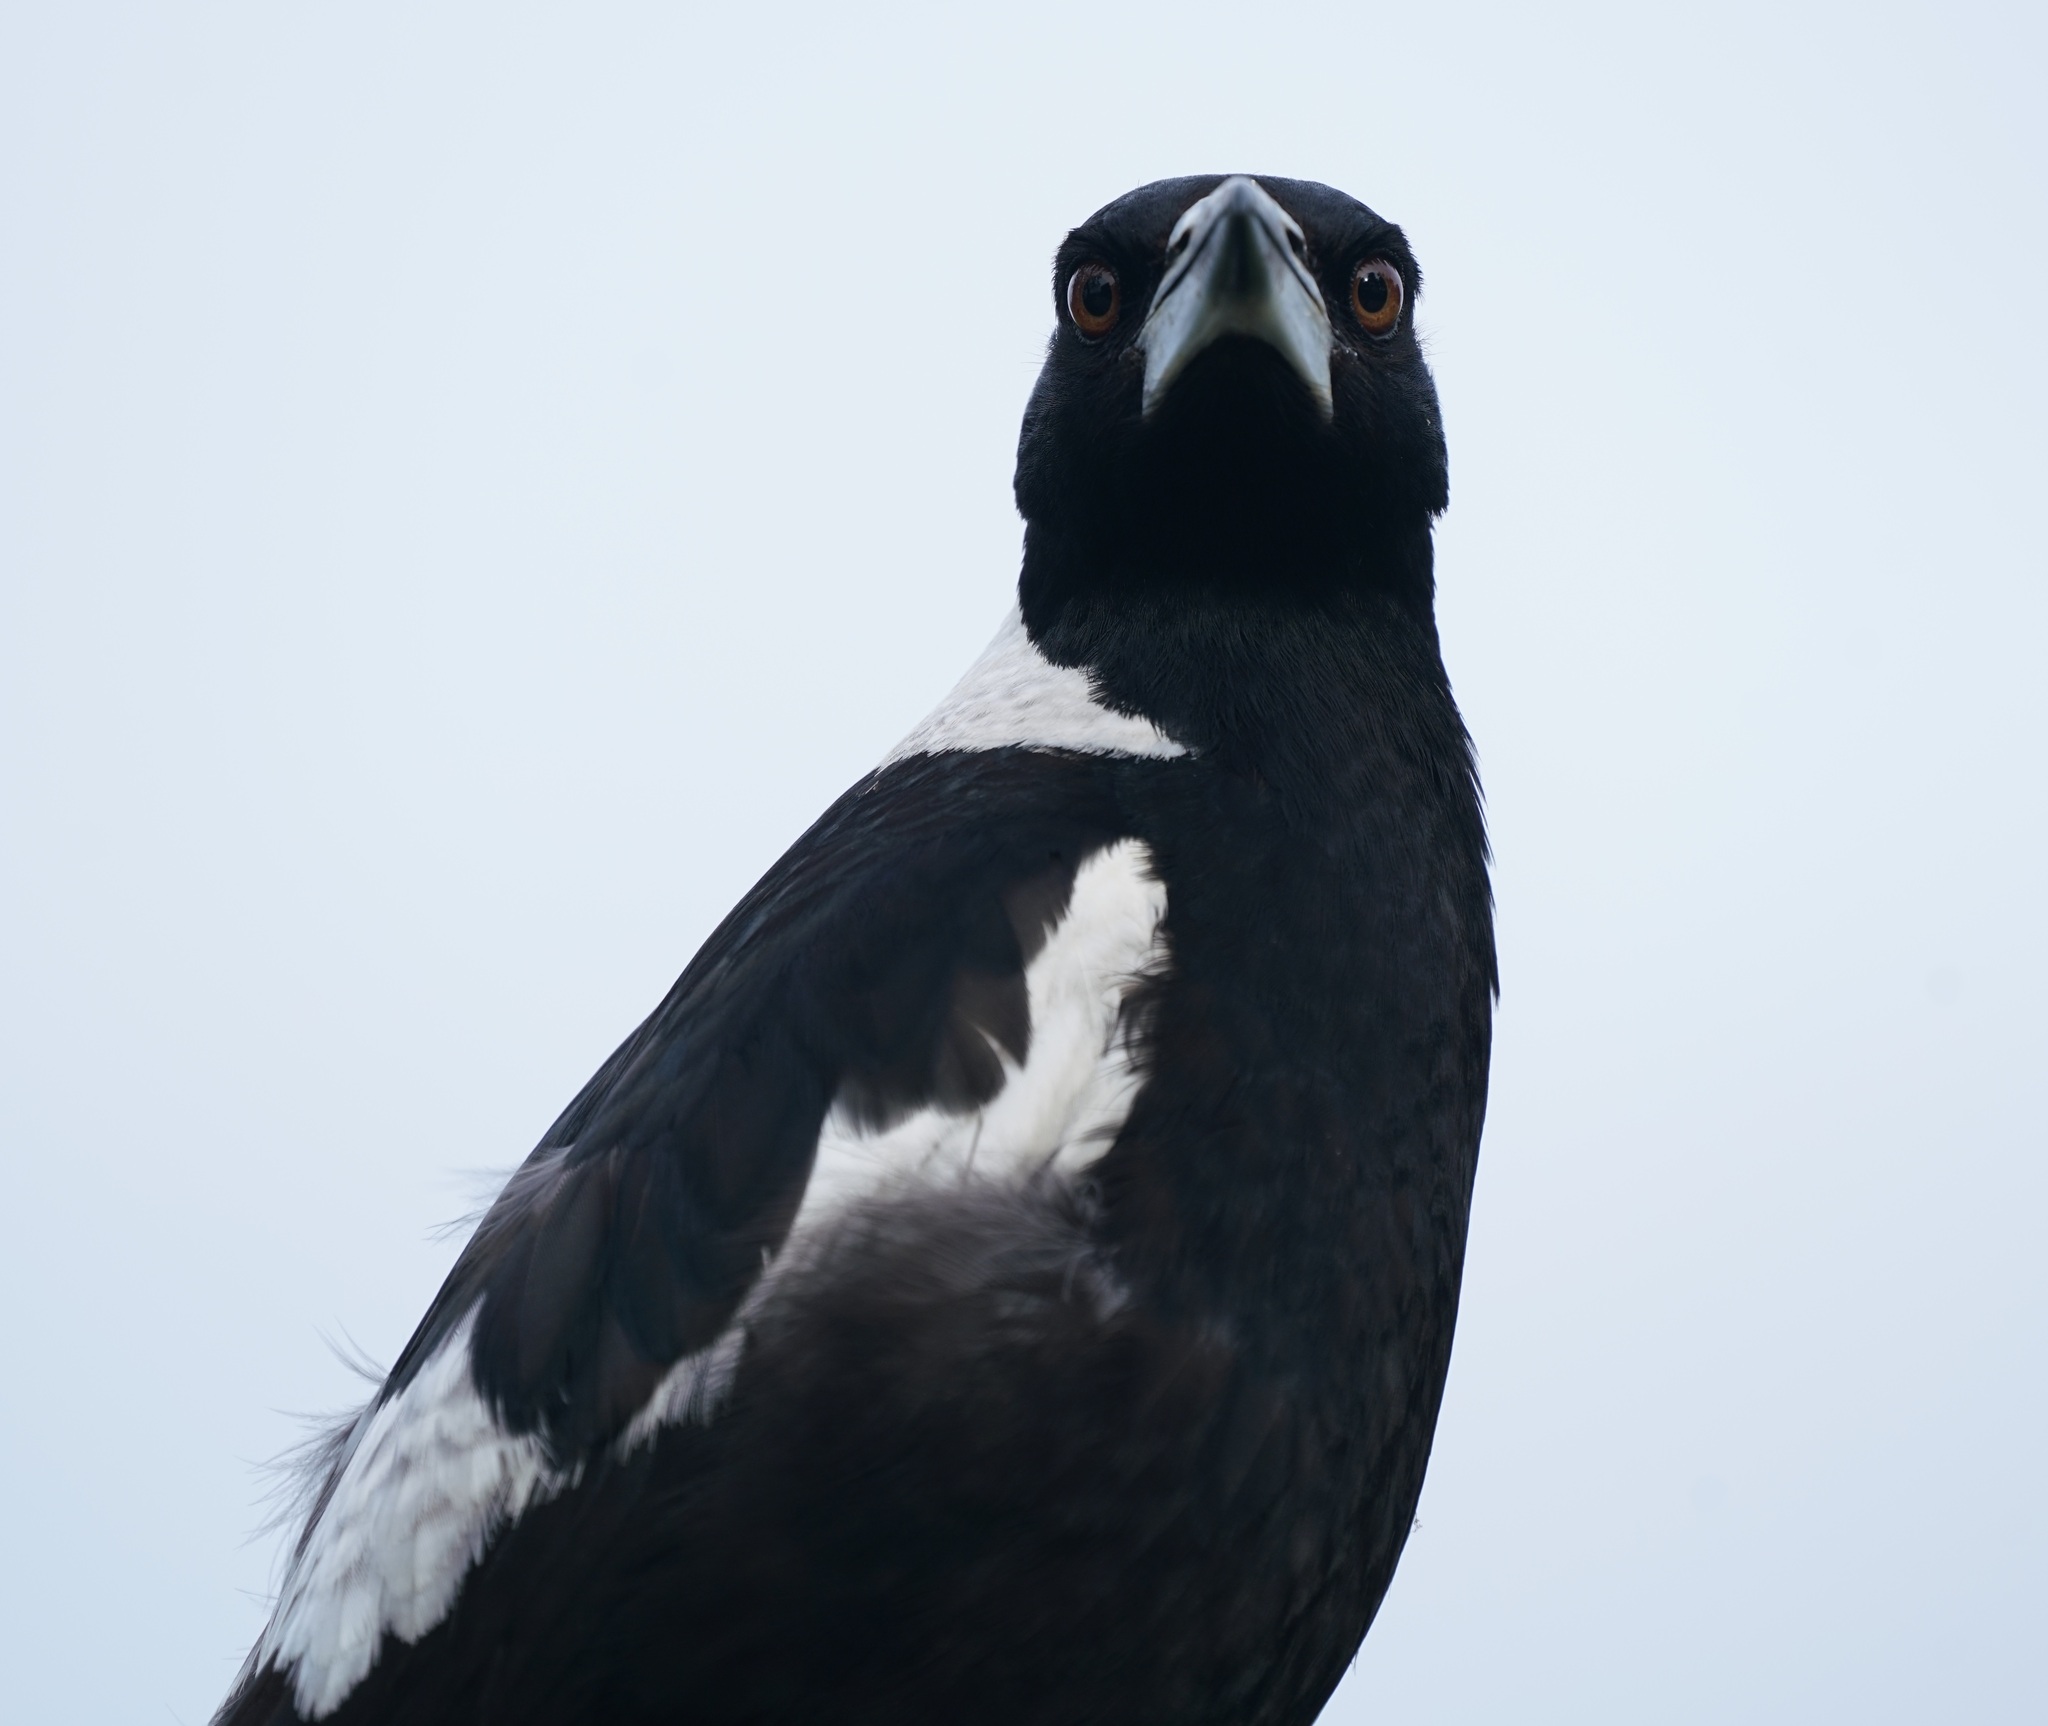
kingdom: Animalia
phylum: Chordata
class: Aves
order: Passeriformes
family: Cracticidae
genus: Gymnorhina
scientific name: Gymnorhina tibicen
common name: Australian magpie
